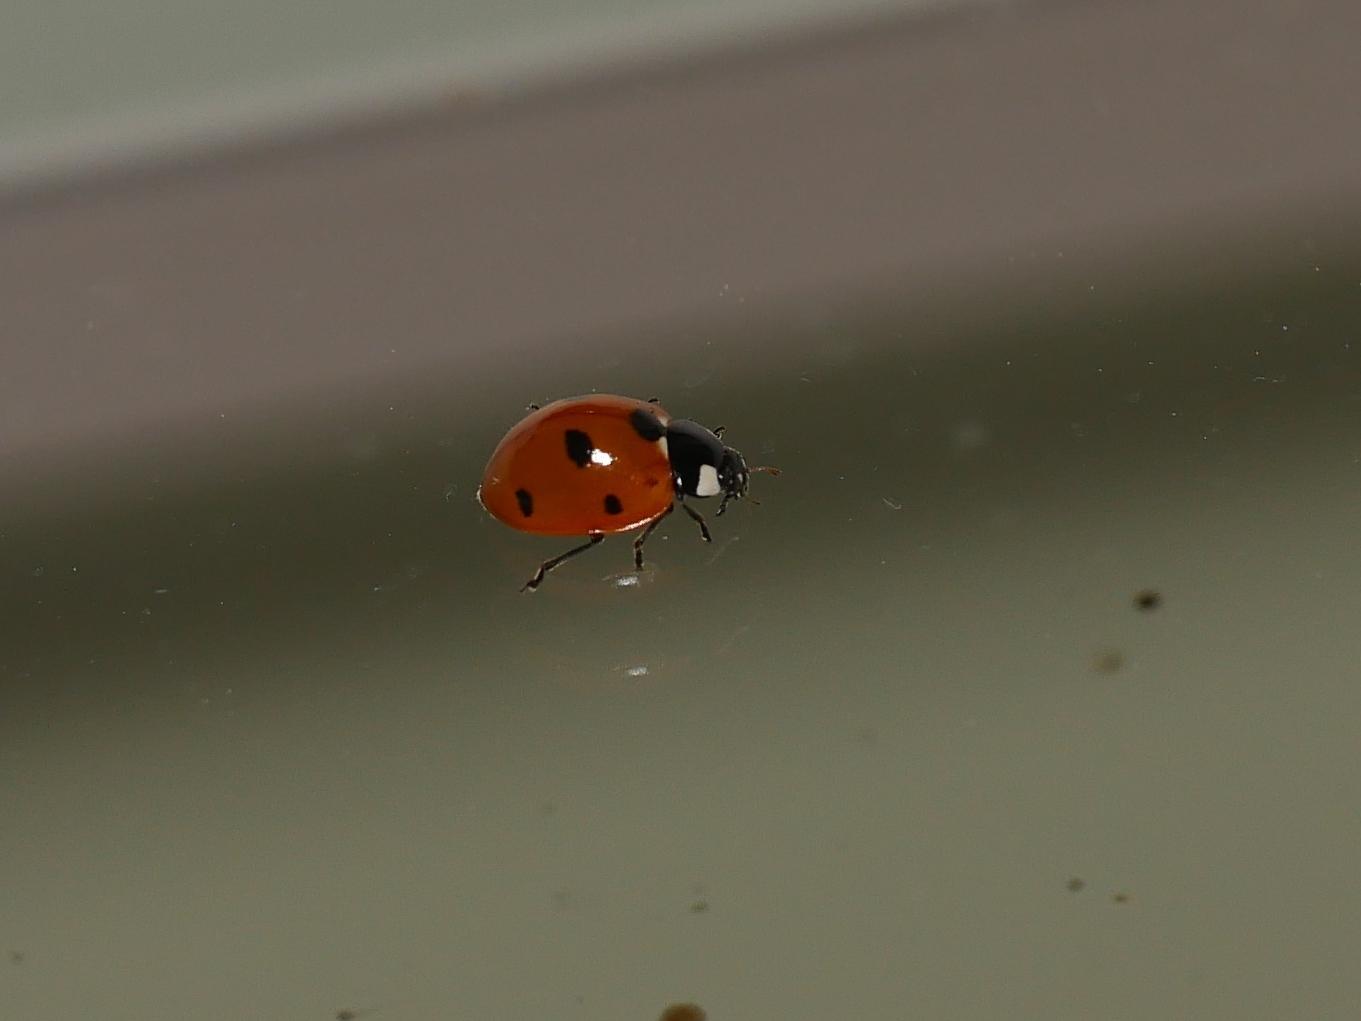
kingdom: Animalia
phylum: Arthropoda
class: Insecta
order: Coleoptera
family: Coccinellidae
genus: Coccinella
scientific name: Coccinella septempunctata
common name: Sevenspotted lady beetle
